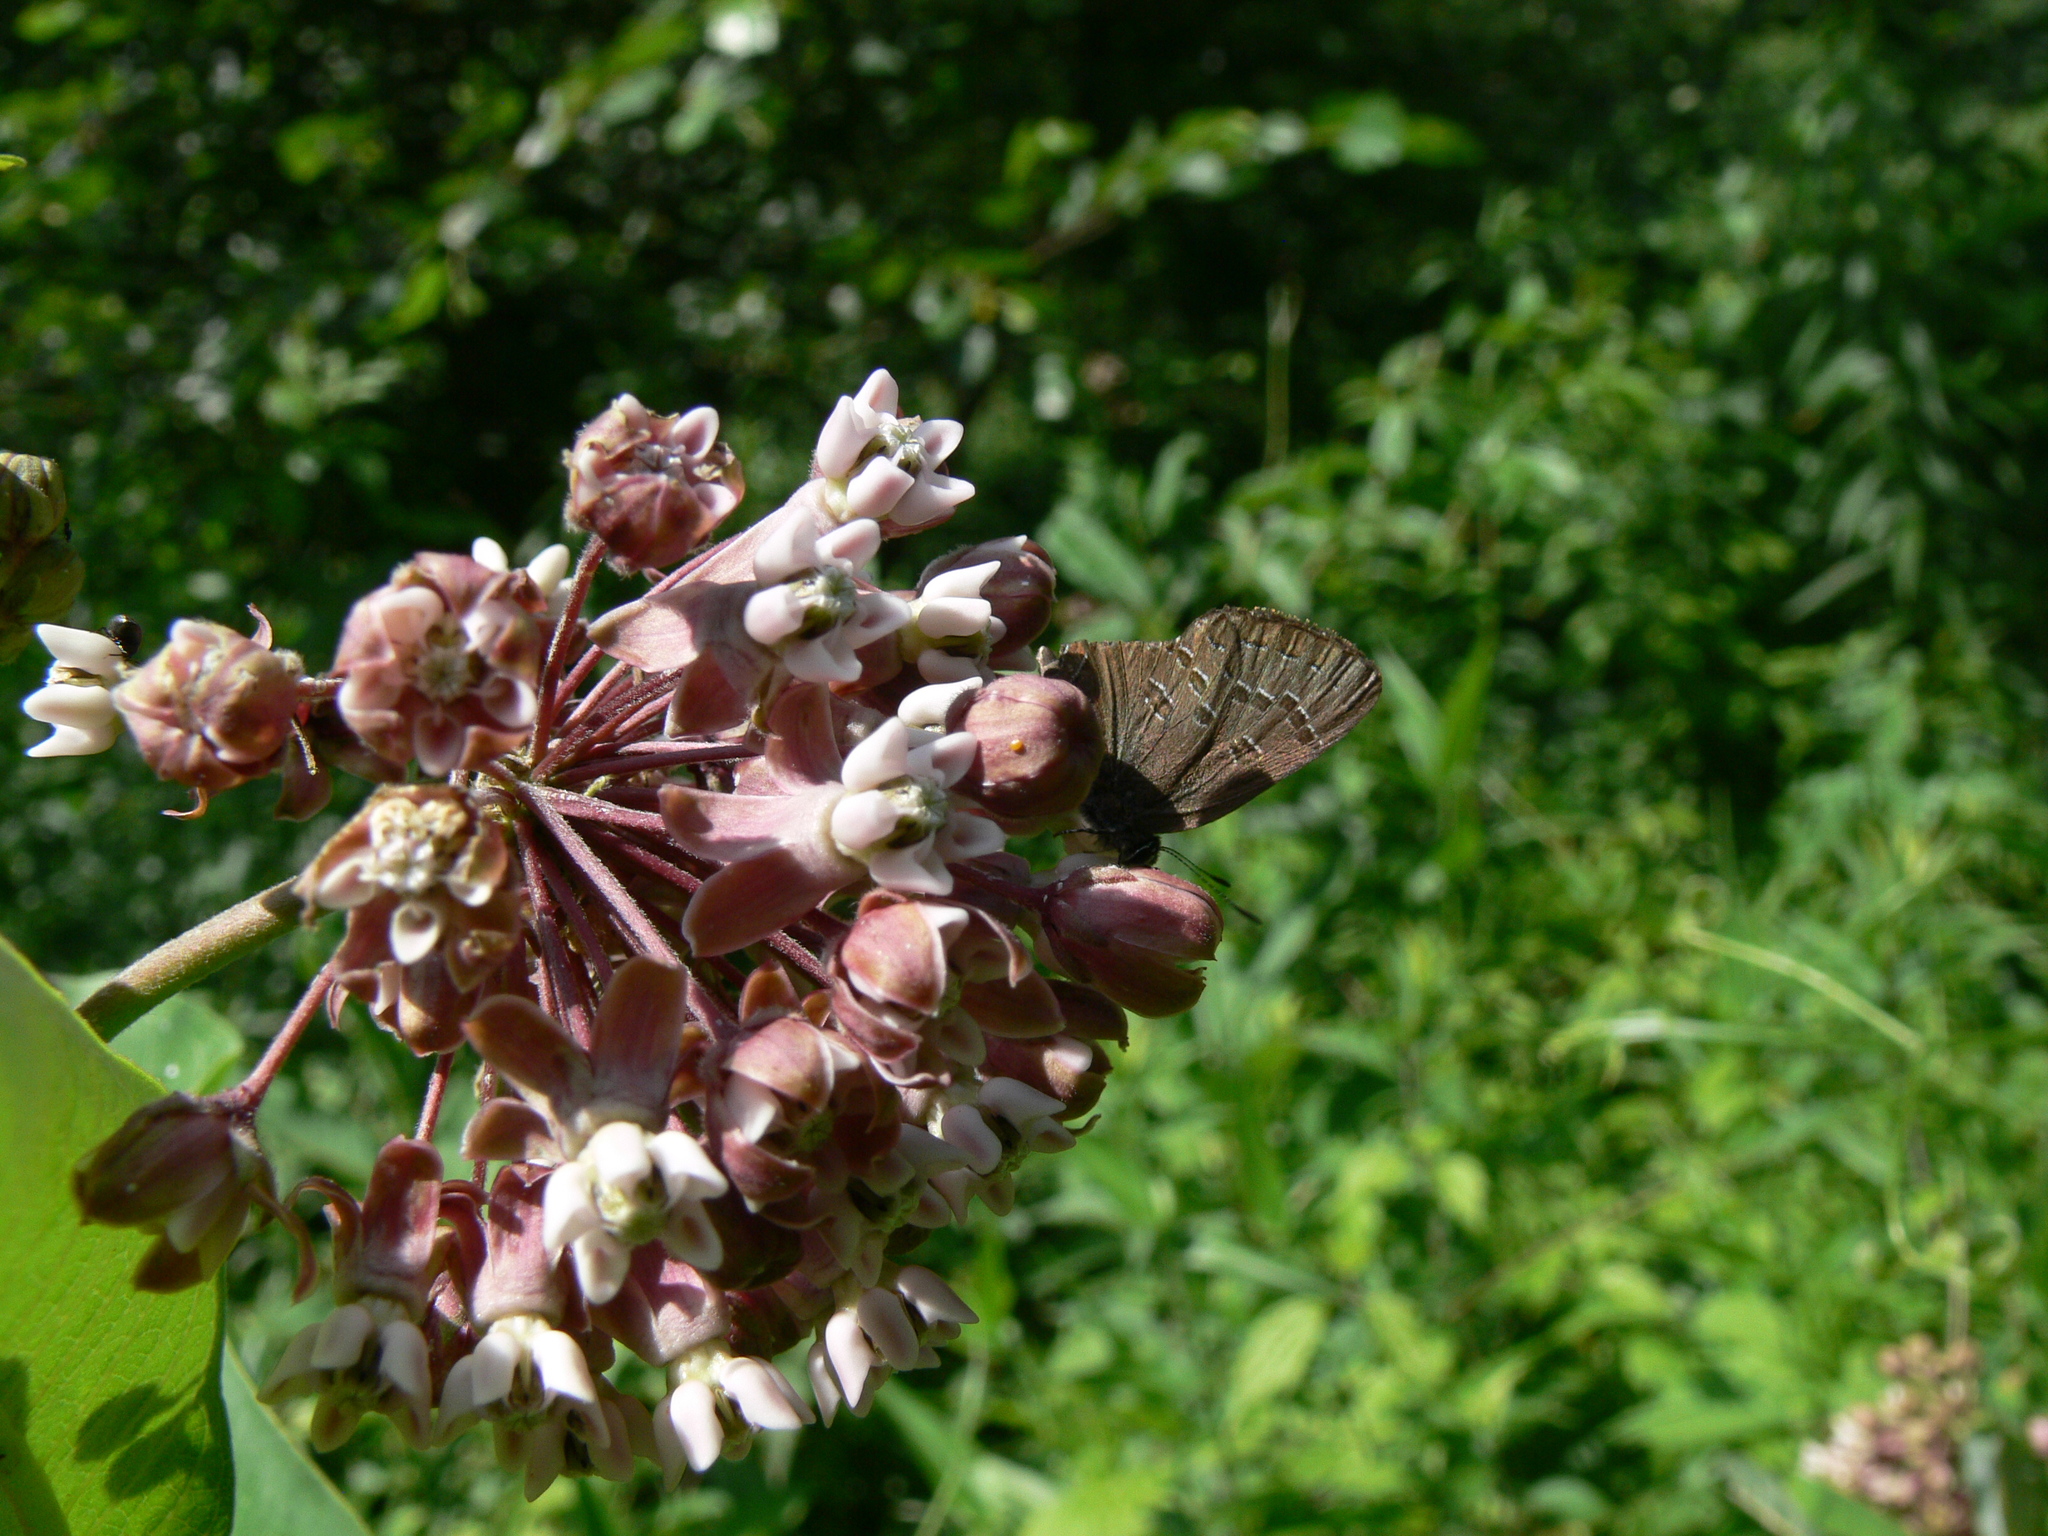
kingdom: Animalia
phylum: Arthropoda
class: Insecta
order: Lepidoptera
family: Lycaenidae
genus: Satyrium
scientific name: Satyrium calanus
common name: Banded hairstreak
